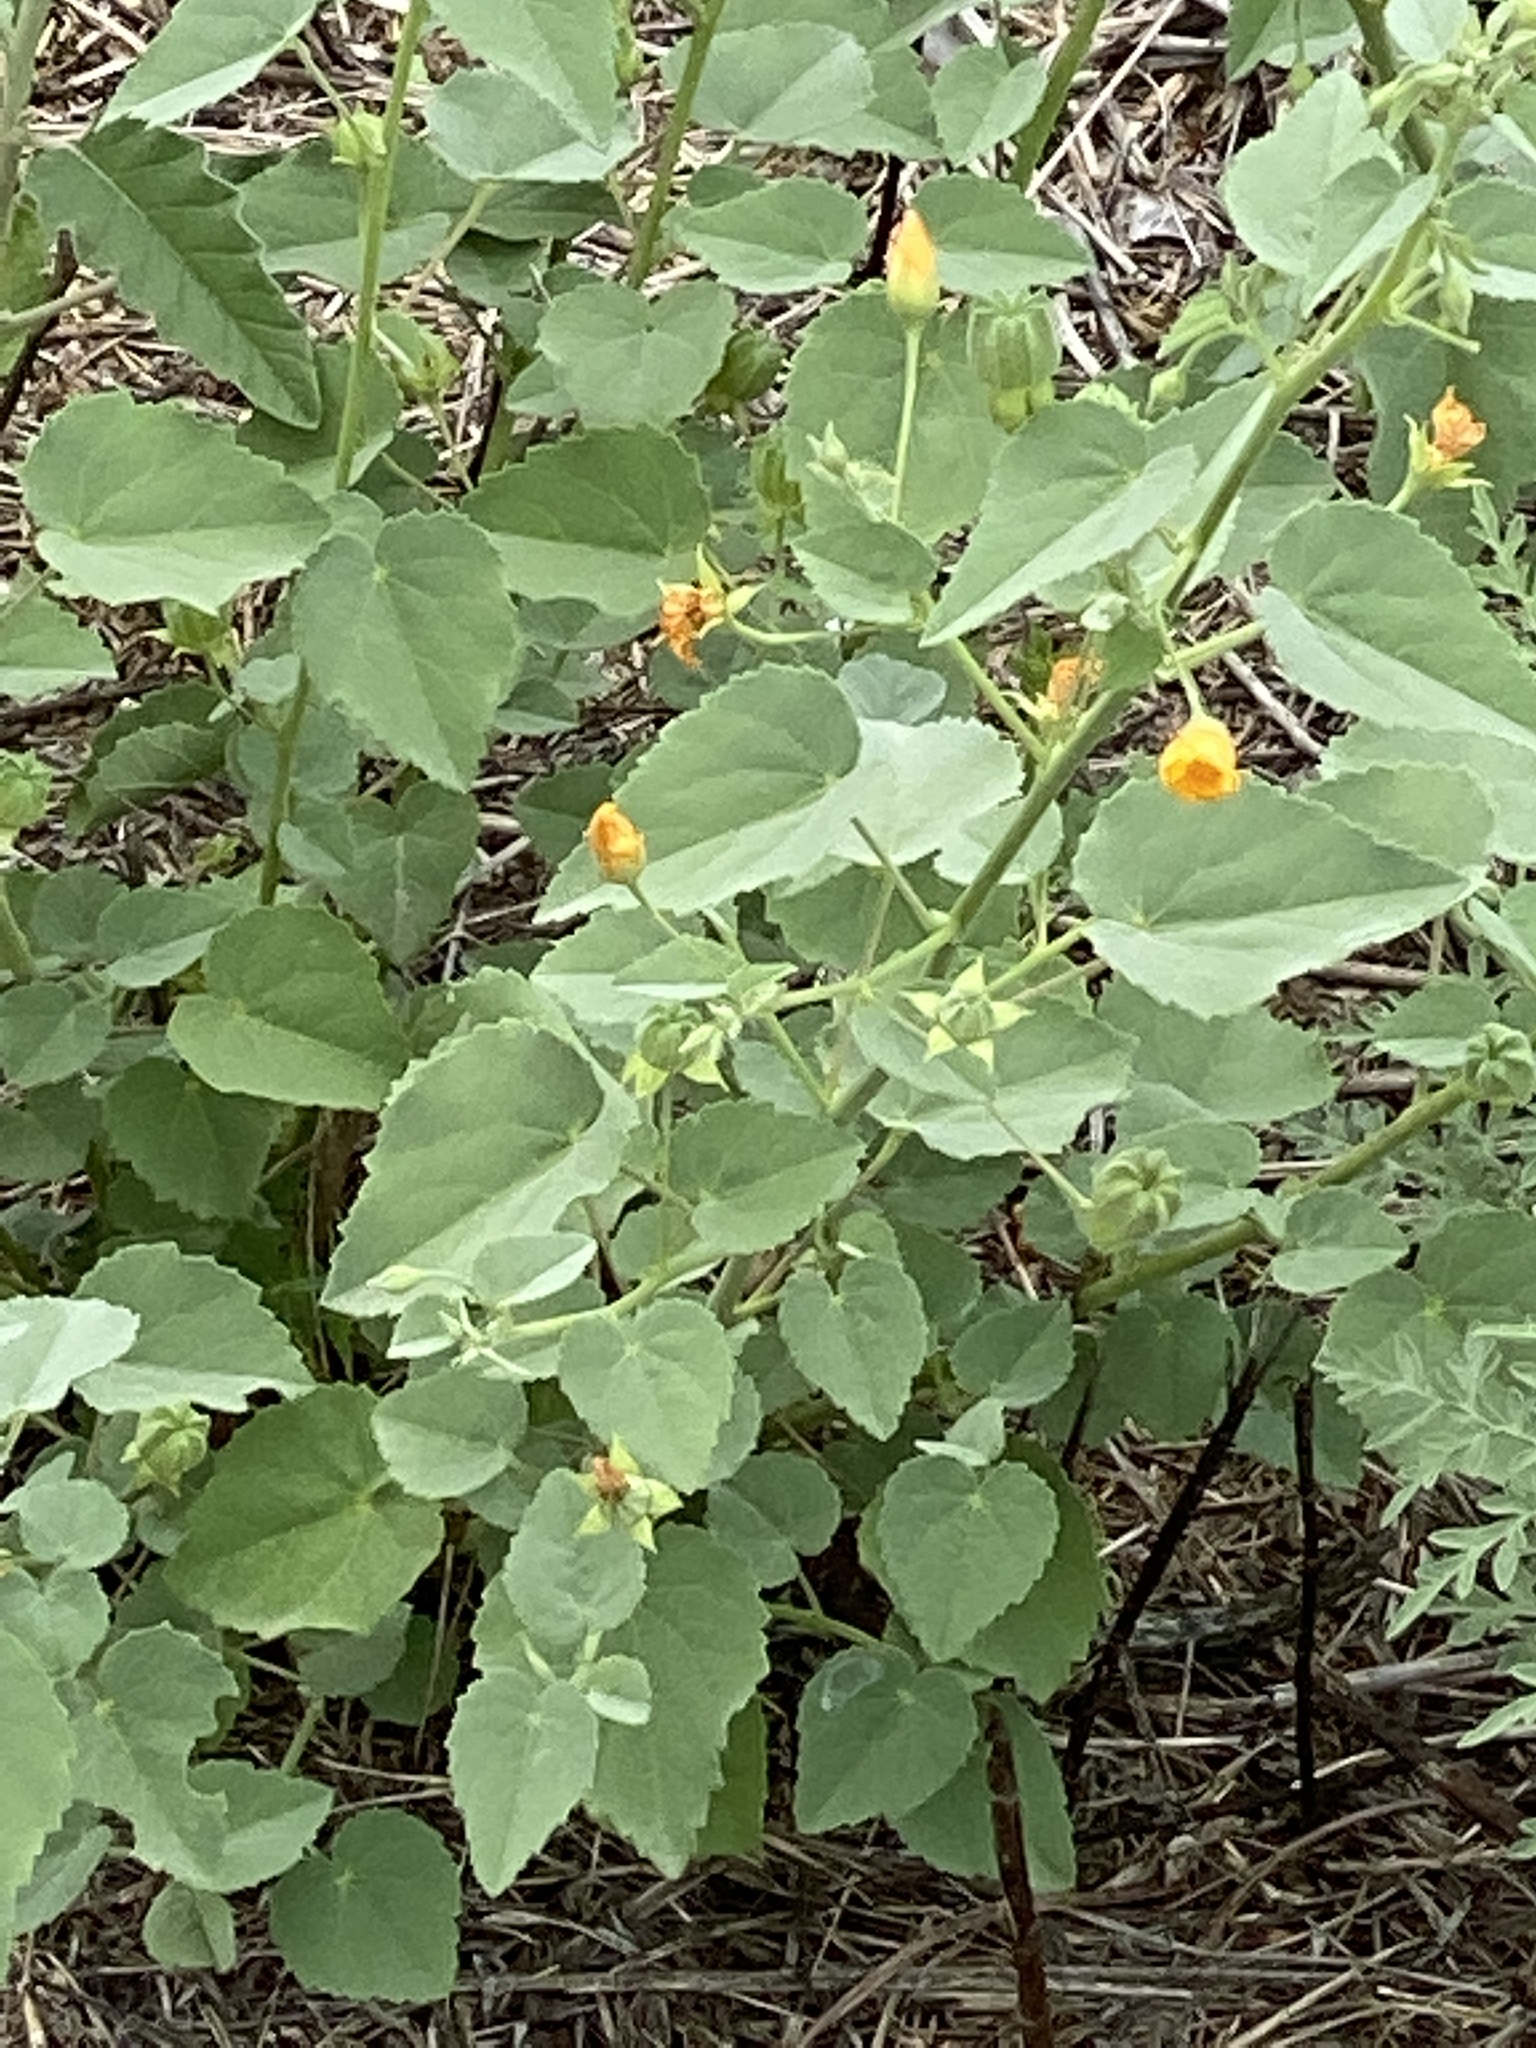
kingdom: Plantae
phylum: Tracheophyta
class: Magnoliopsida
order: Malvales
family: Malvaceae
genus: Abutilon
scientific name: Abutilon fruticosum
